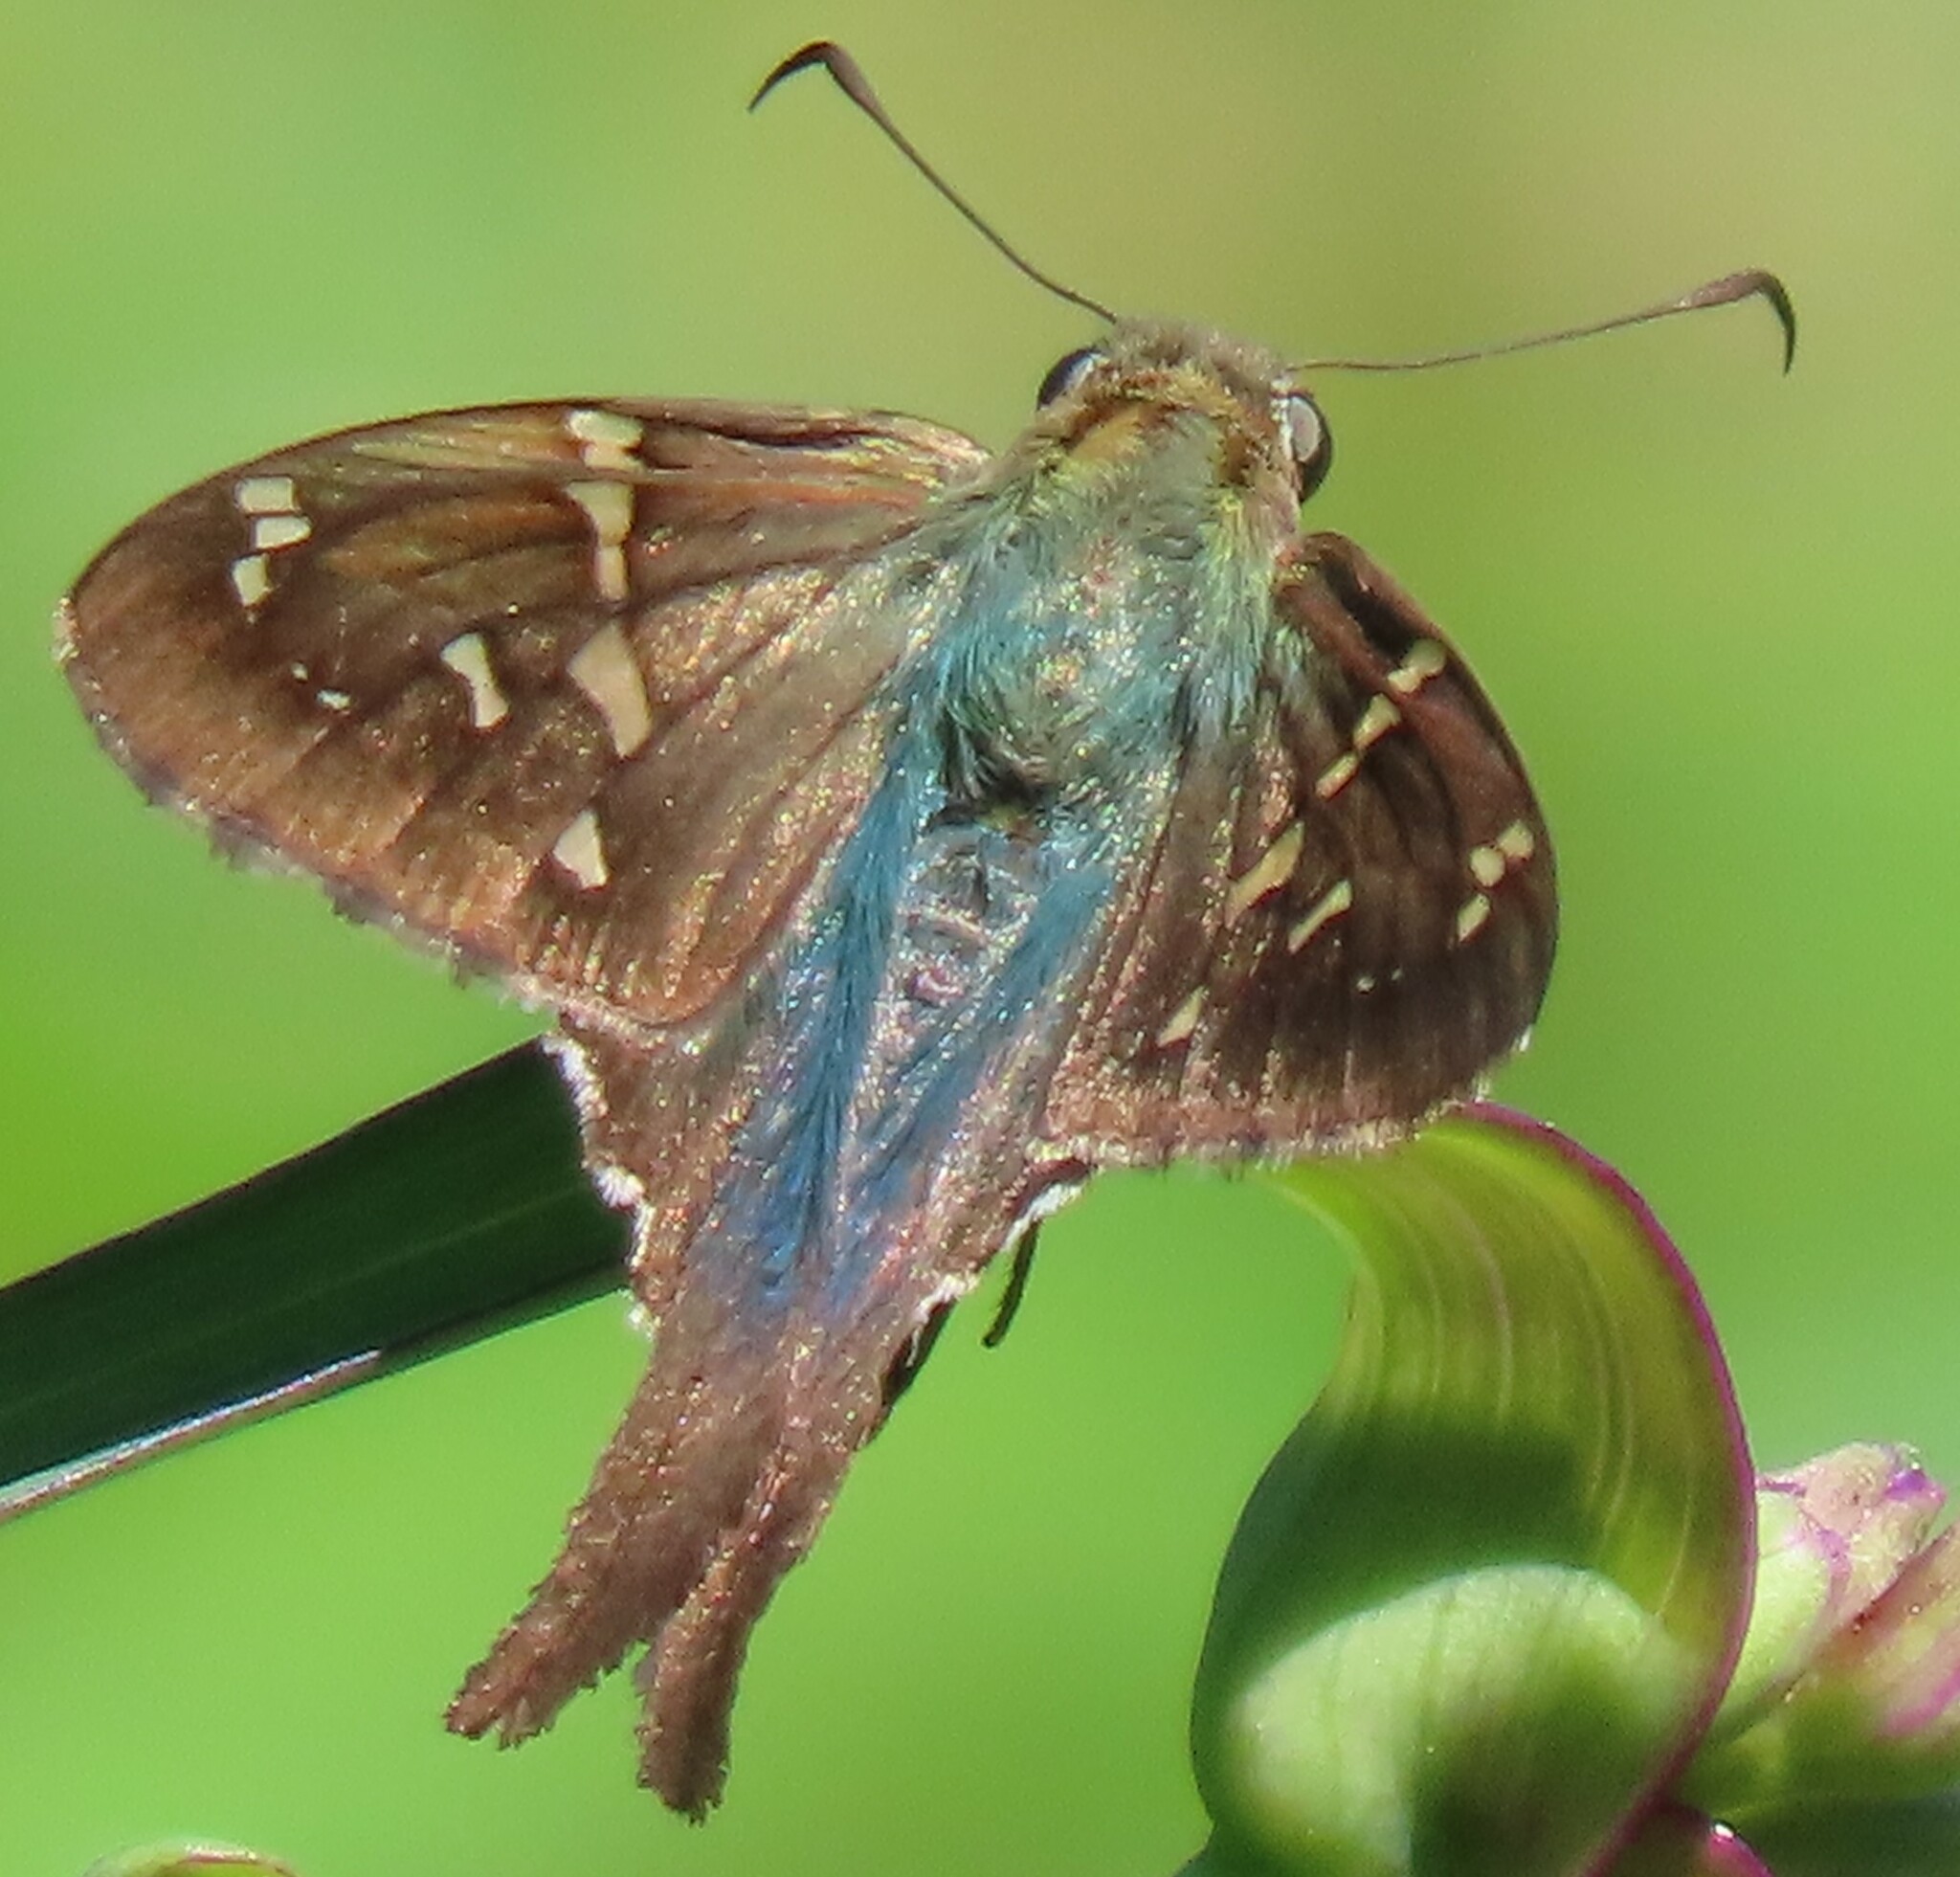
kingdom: Animalia
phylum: Arthropoda
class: Insecta
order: Lepidoptera
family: Hesperiidae
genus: Urbanus
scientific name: Urbanus proteus
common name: Long-tailed skipper
